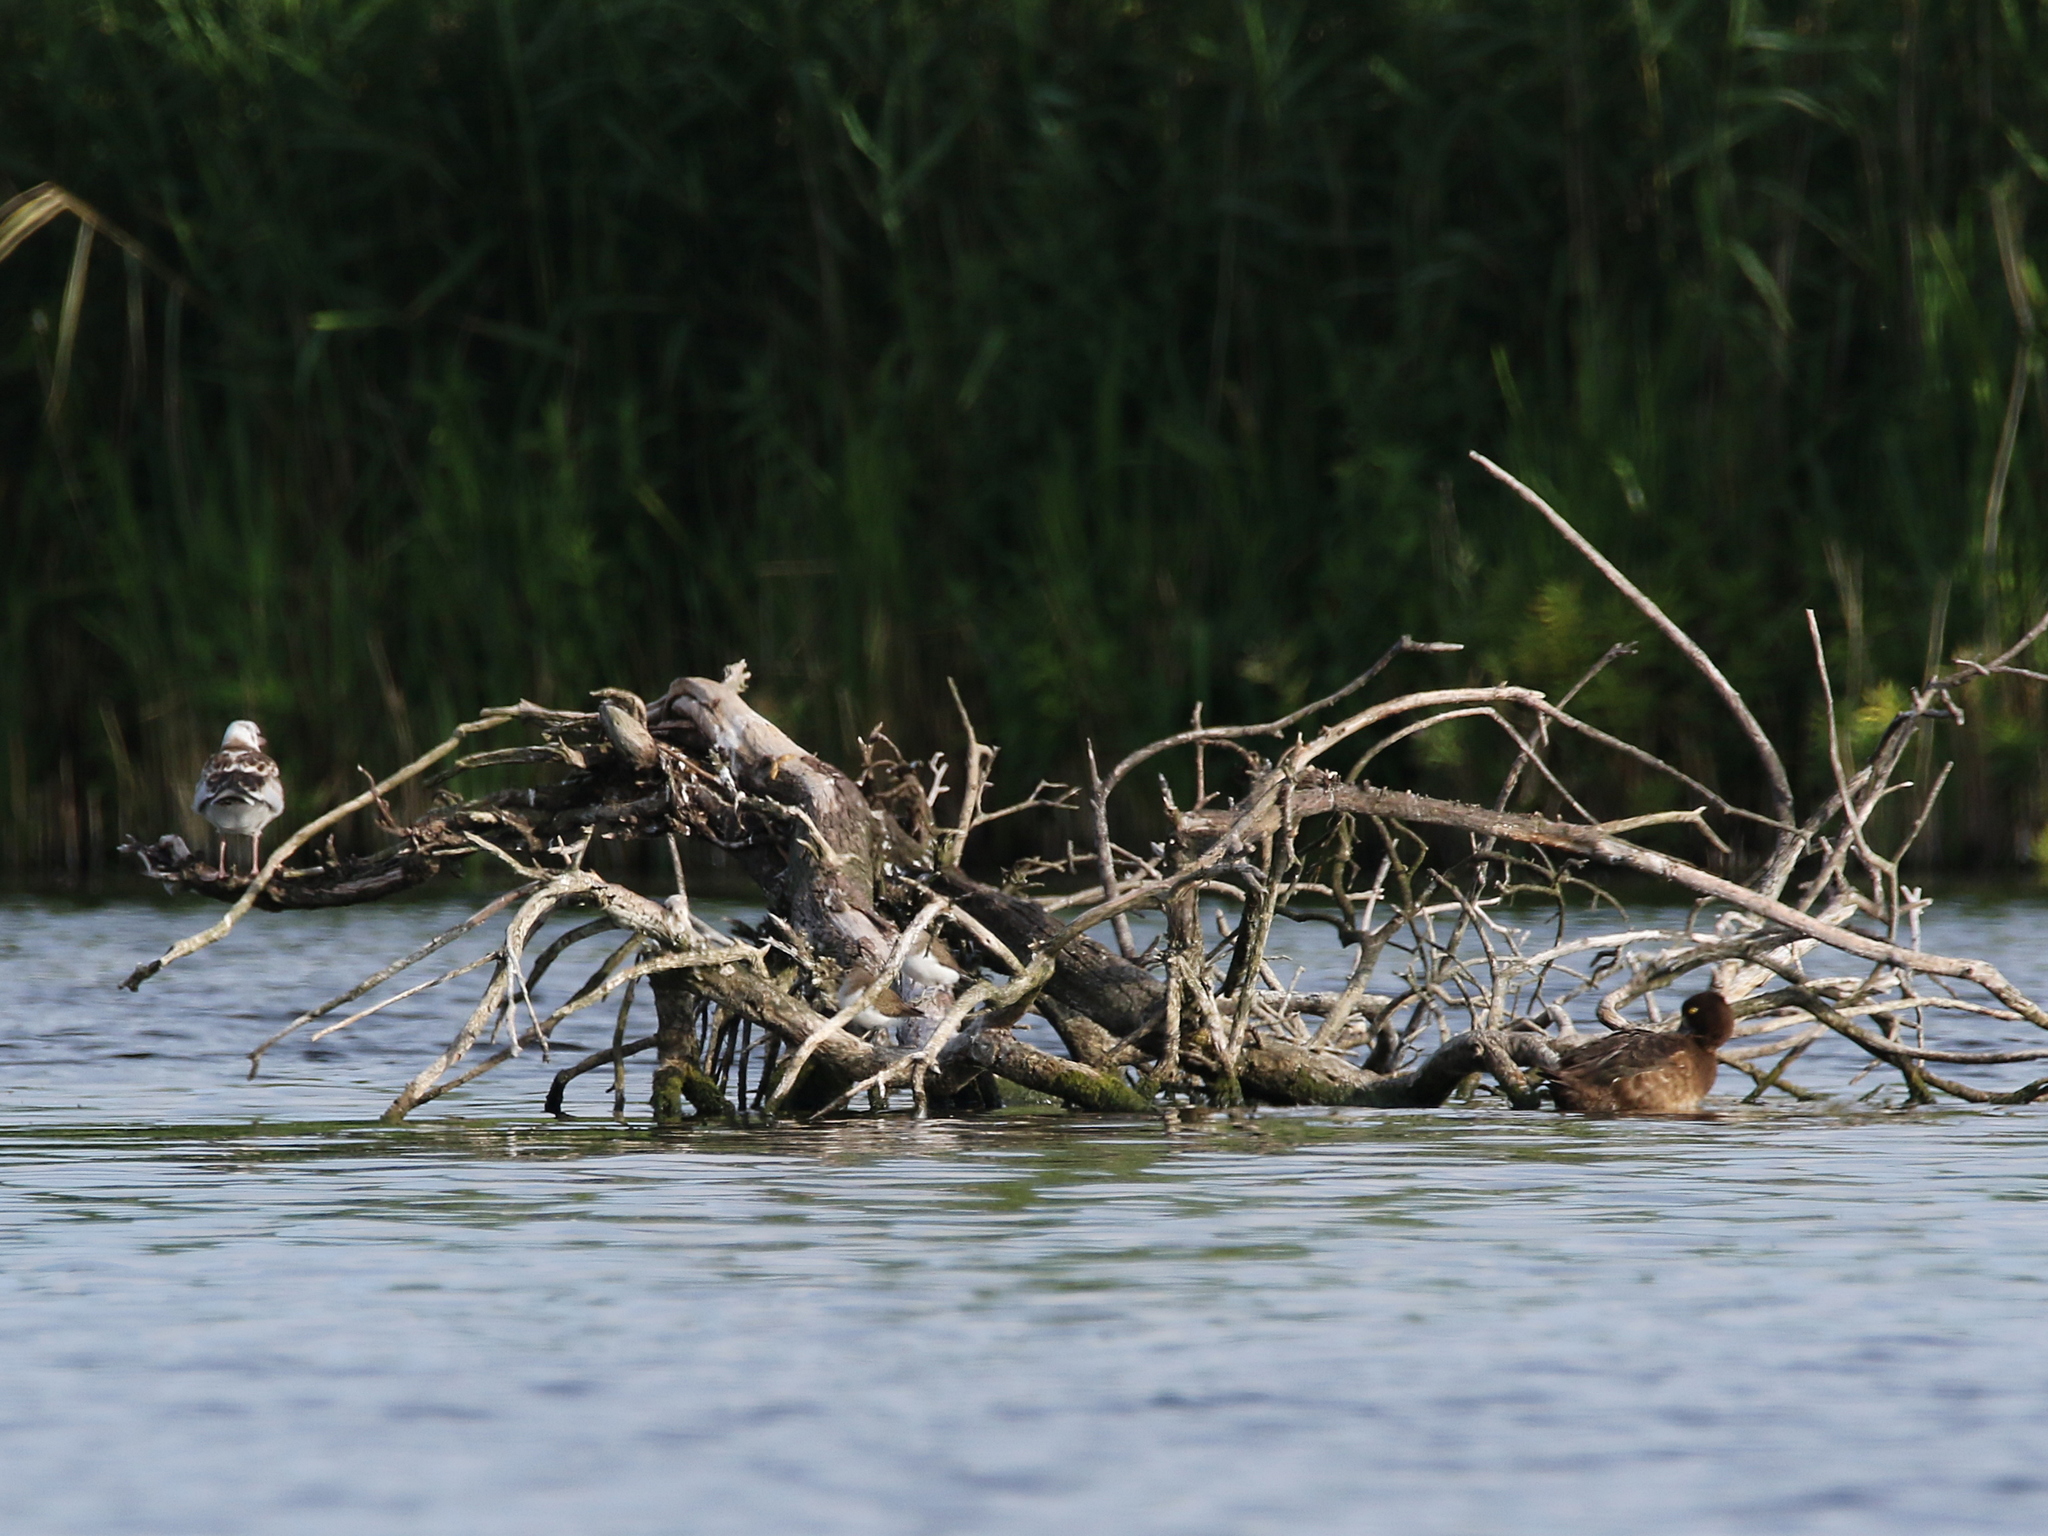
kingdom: Animalia
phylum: Chordata
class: Aves
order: Charadriiformes
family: Scolopacidae
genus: Actitis
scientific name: Actitis hypoleucos
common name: Common sandpiper
